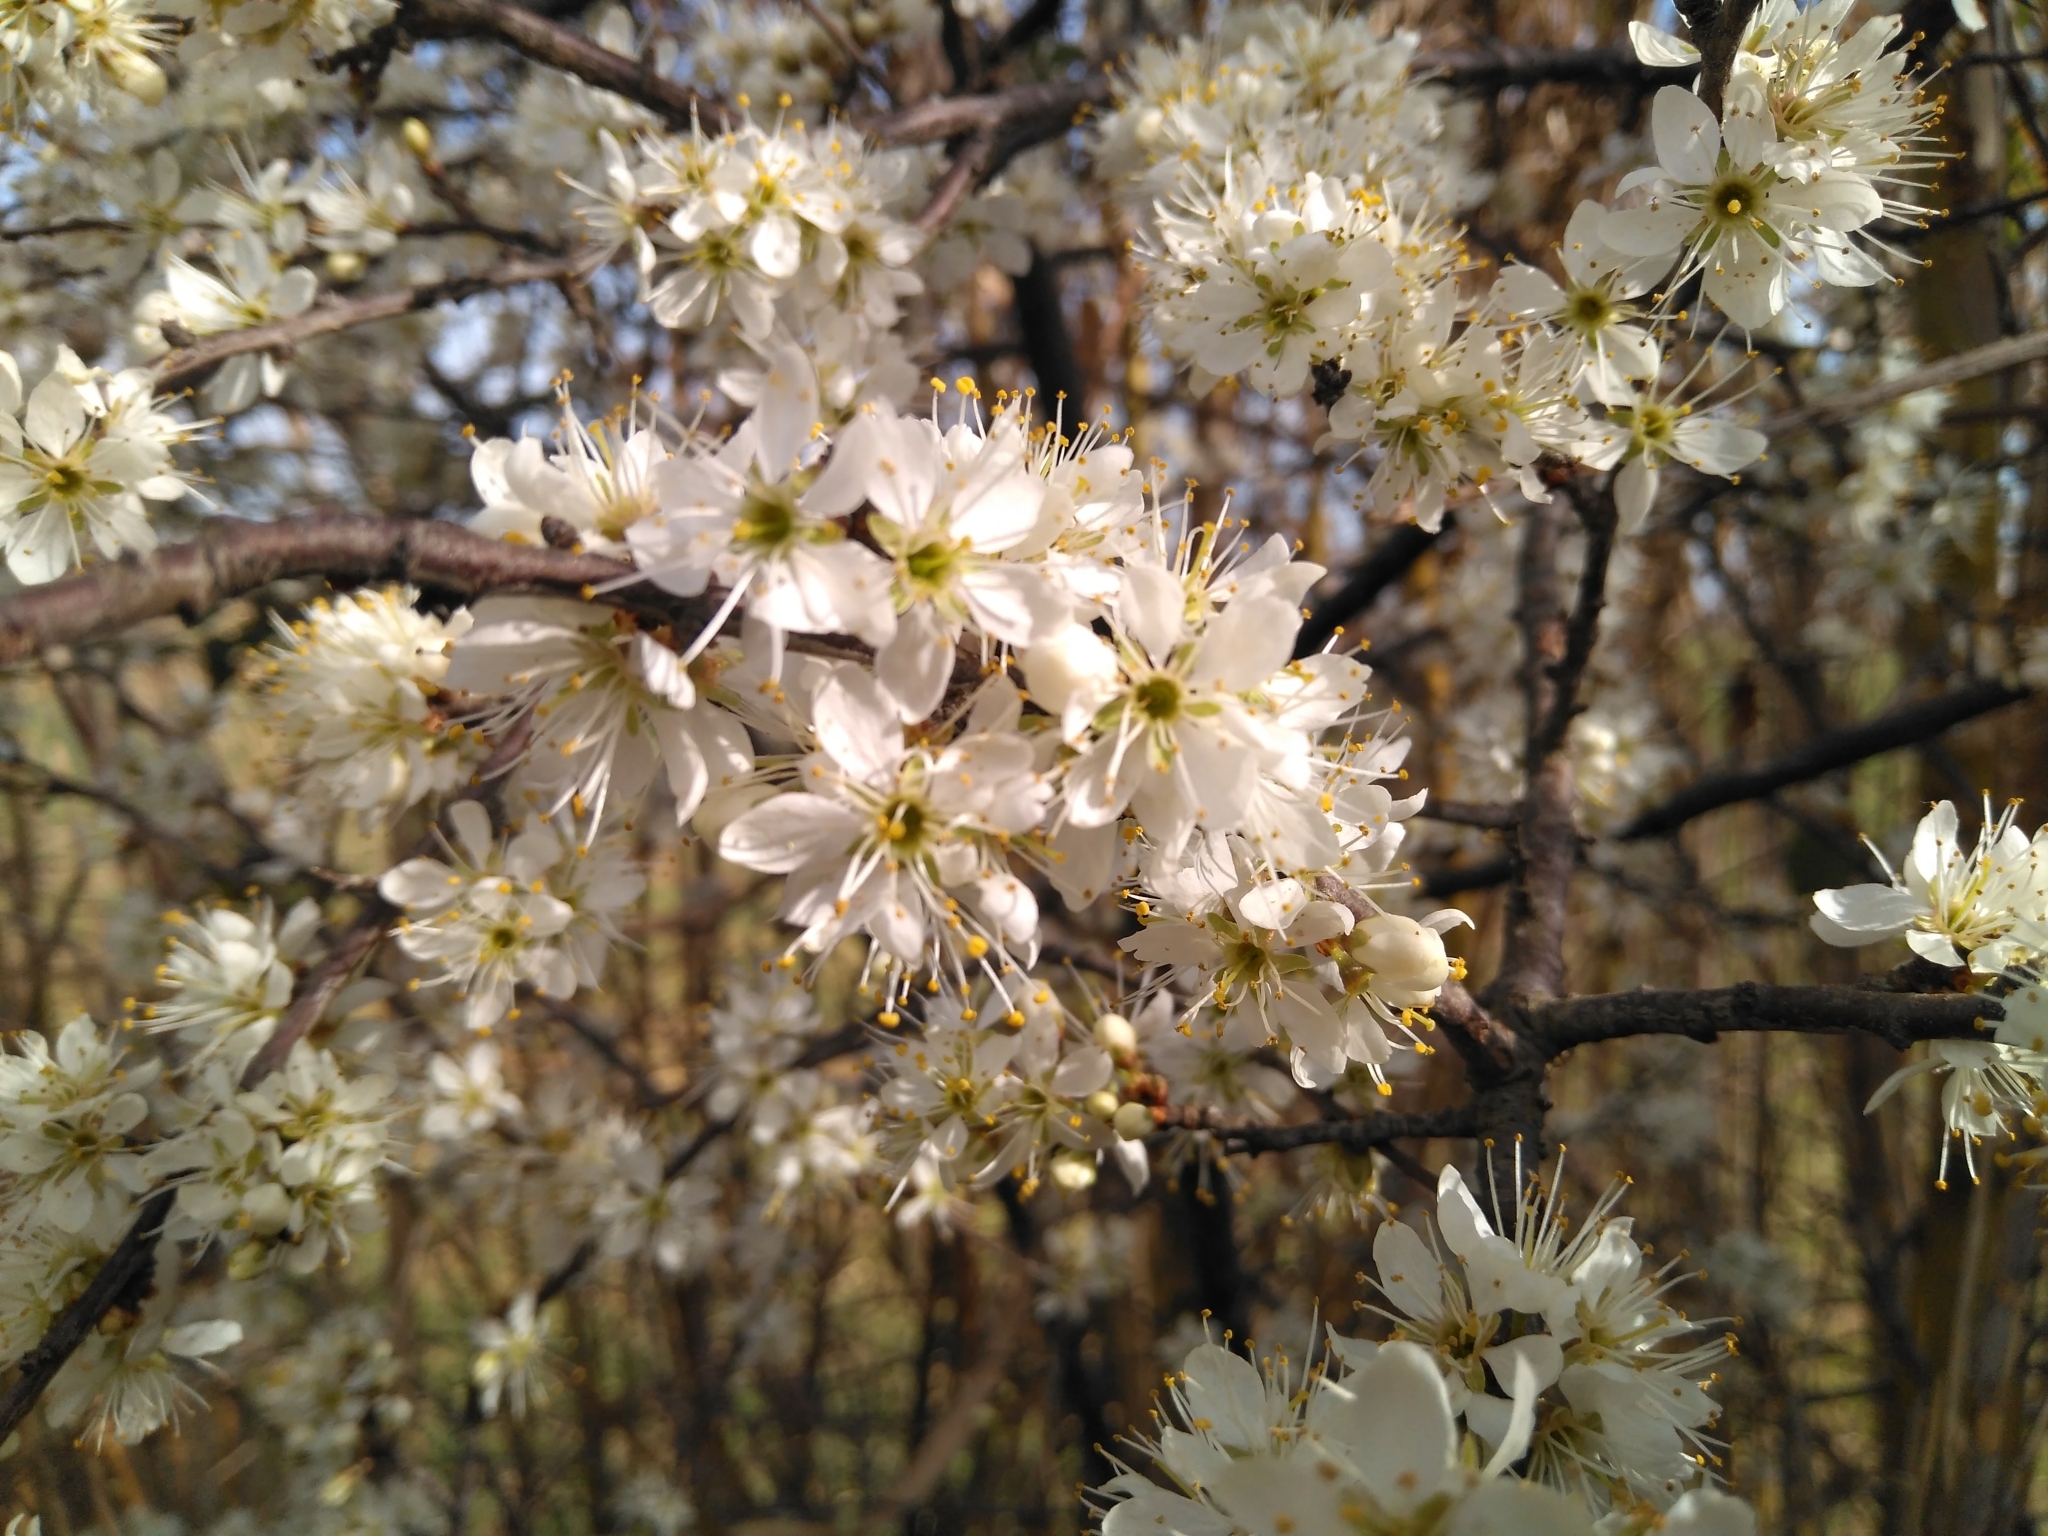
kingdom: Plantae
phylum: Tracheophyta
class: Magnoliopsida
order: Rosales
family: Rosaceae
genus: Prunus
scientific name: Prunus spinosa
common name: Blackthorn
